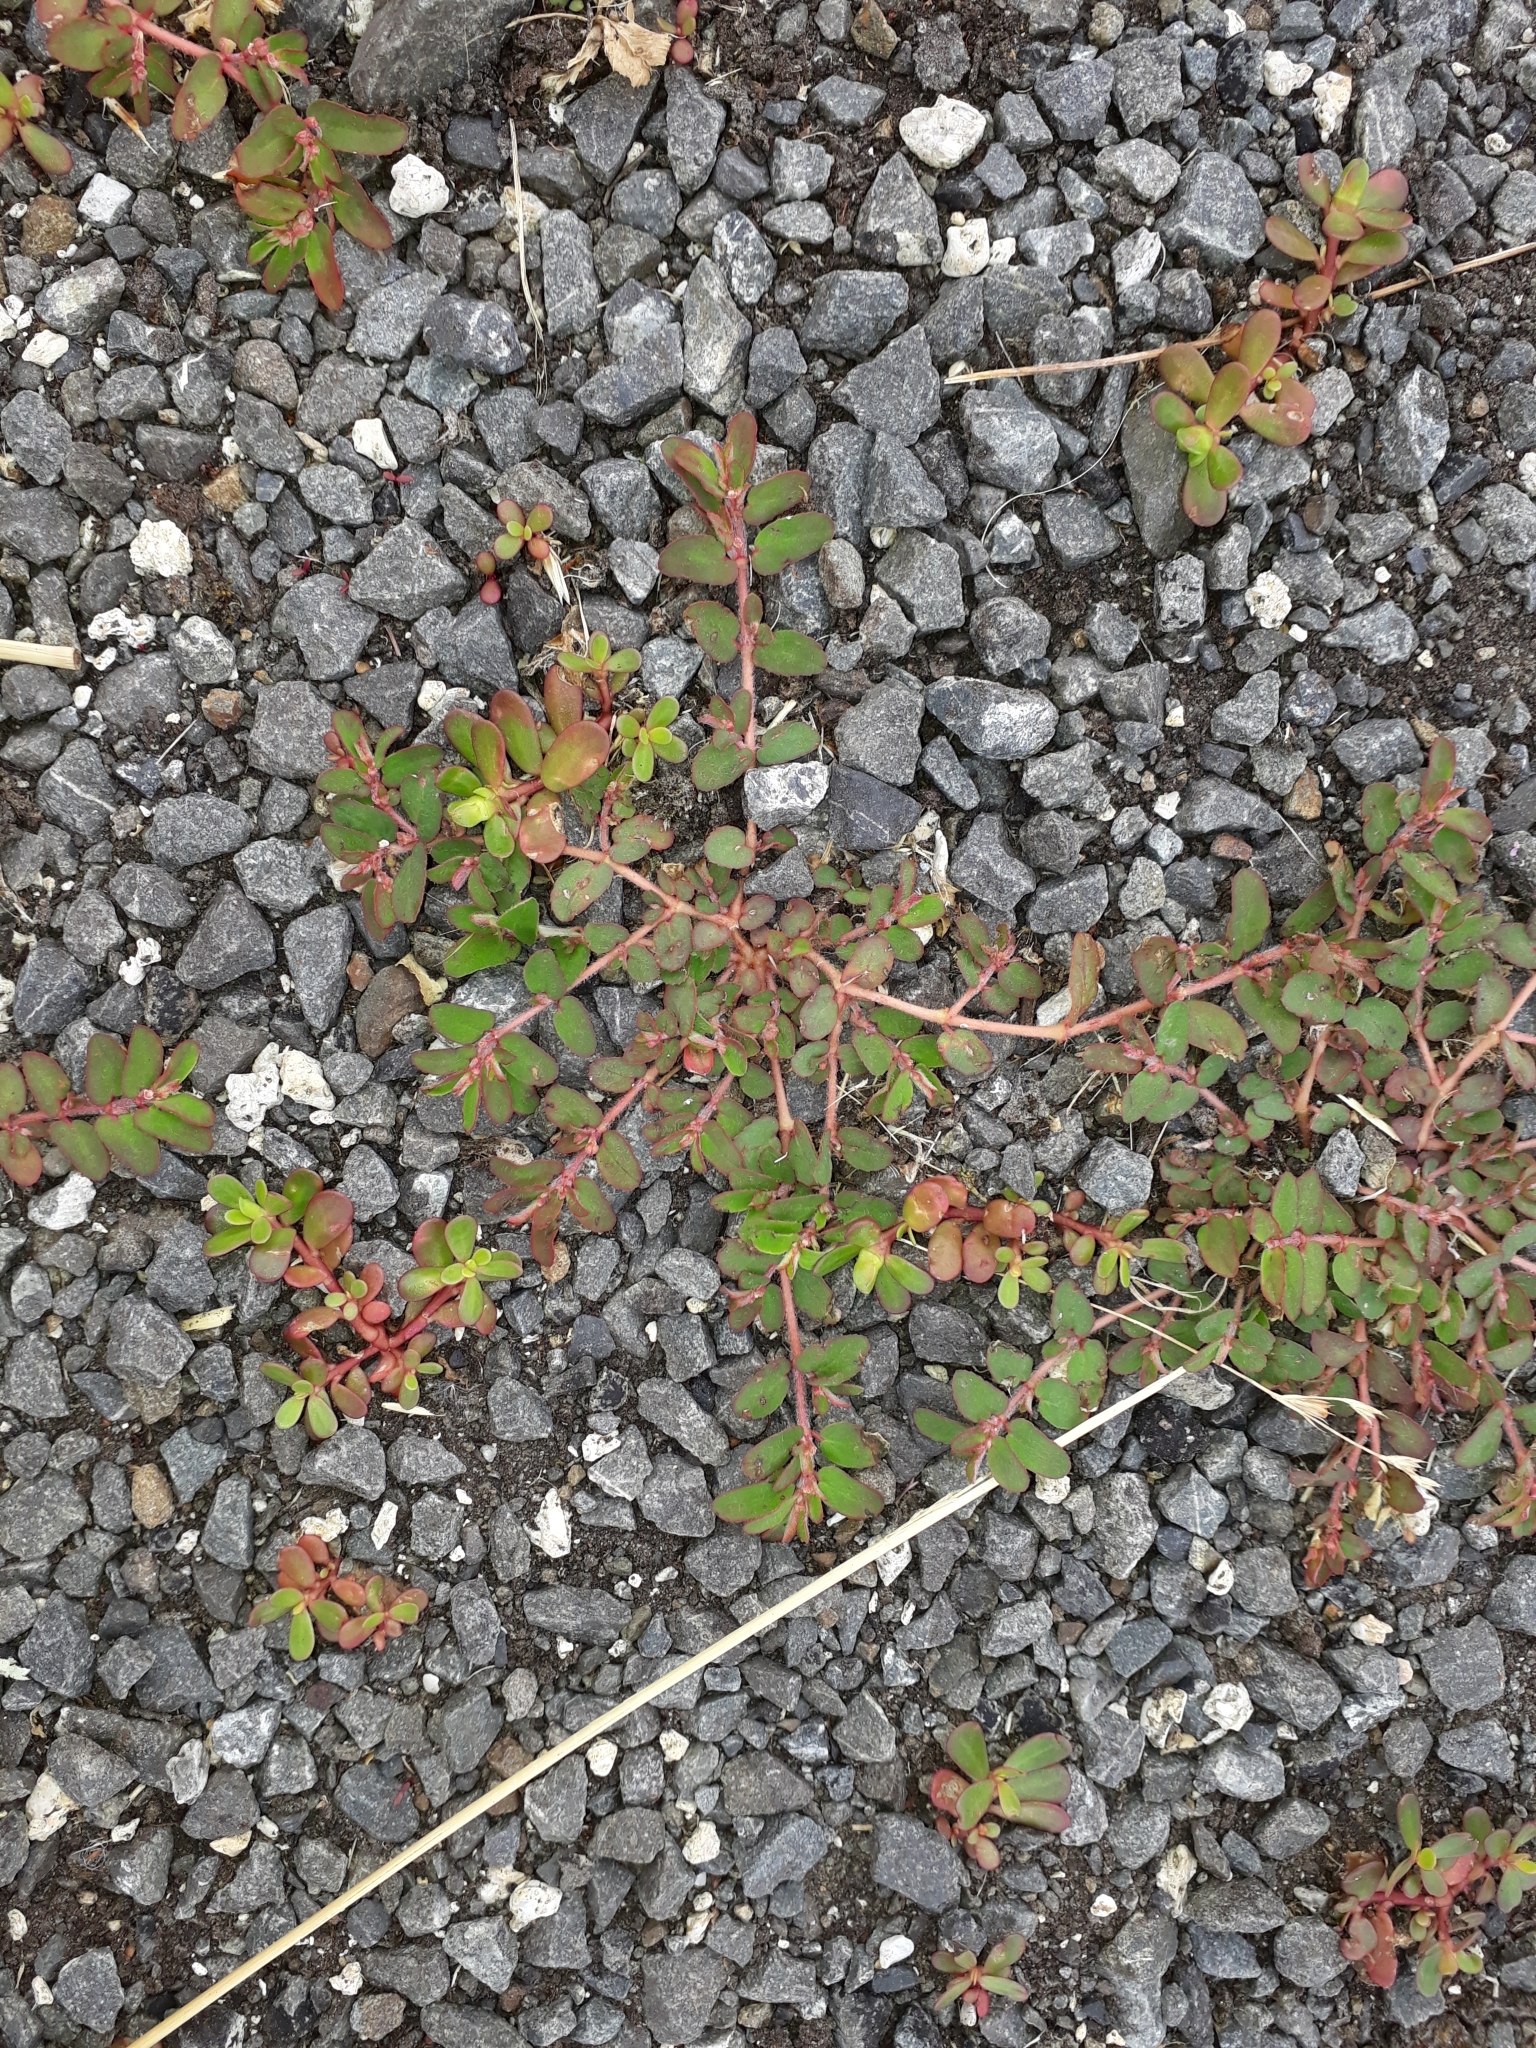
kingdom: Plantae
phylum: Tracheophyta
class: Magnoliopsida
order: Malpighiales
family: Euphorbiaceae
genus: Euphorbia
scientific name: Euphorbia maculata
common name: Spotted spurge
